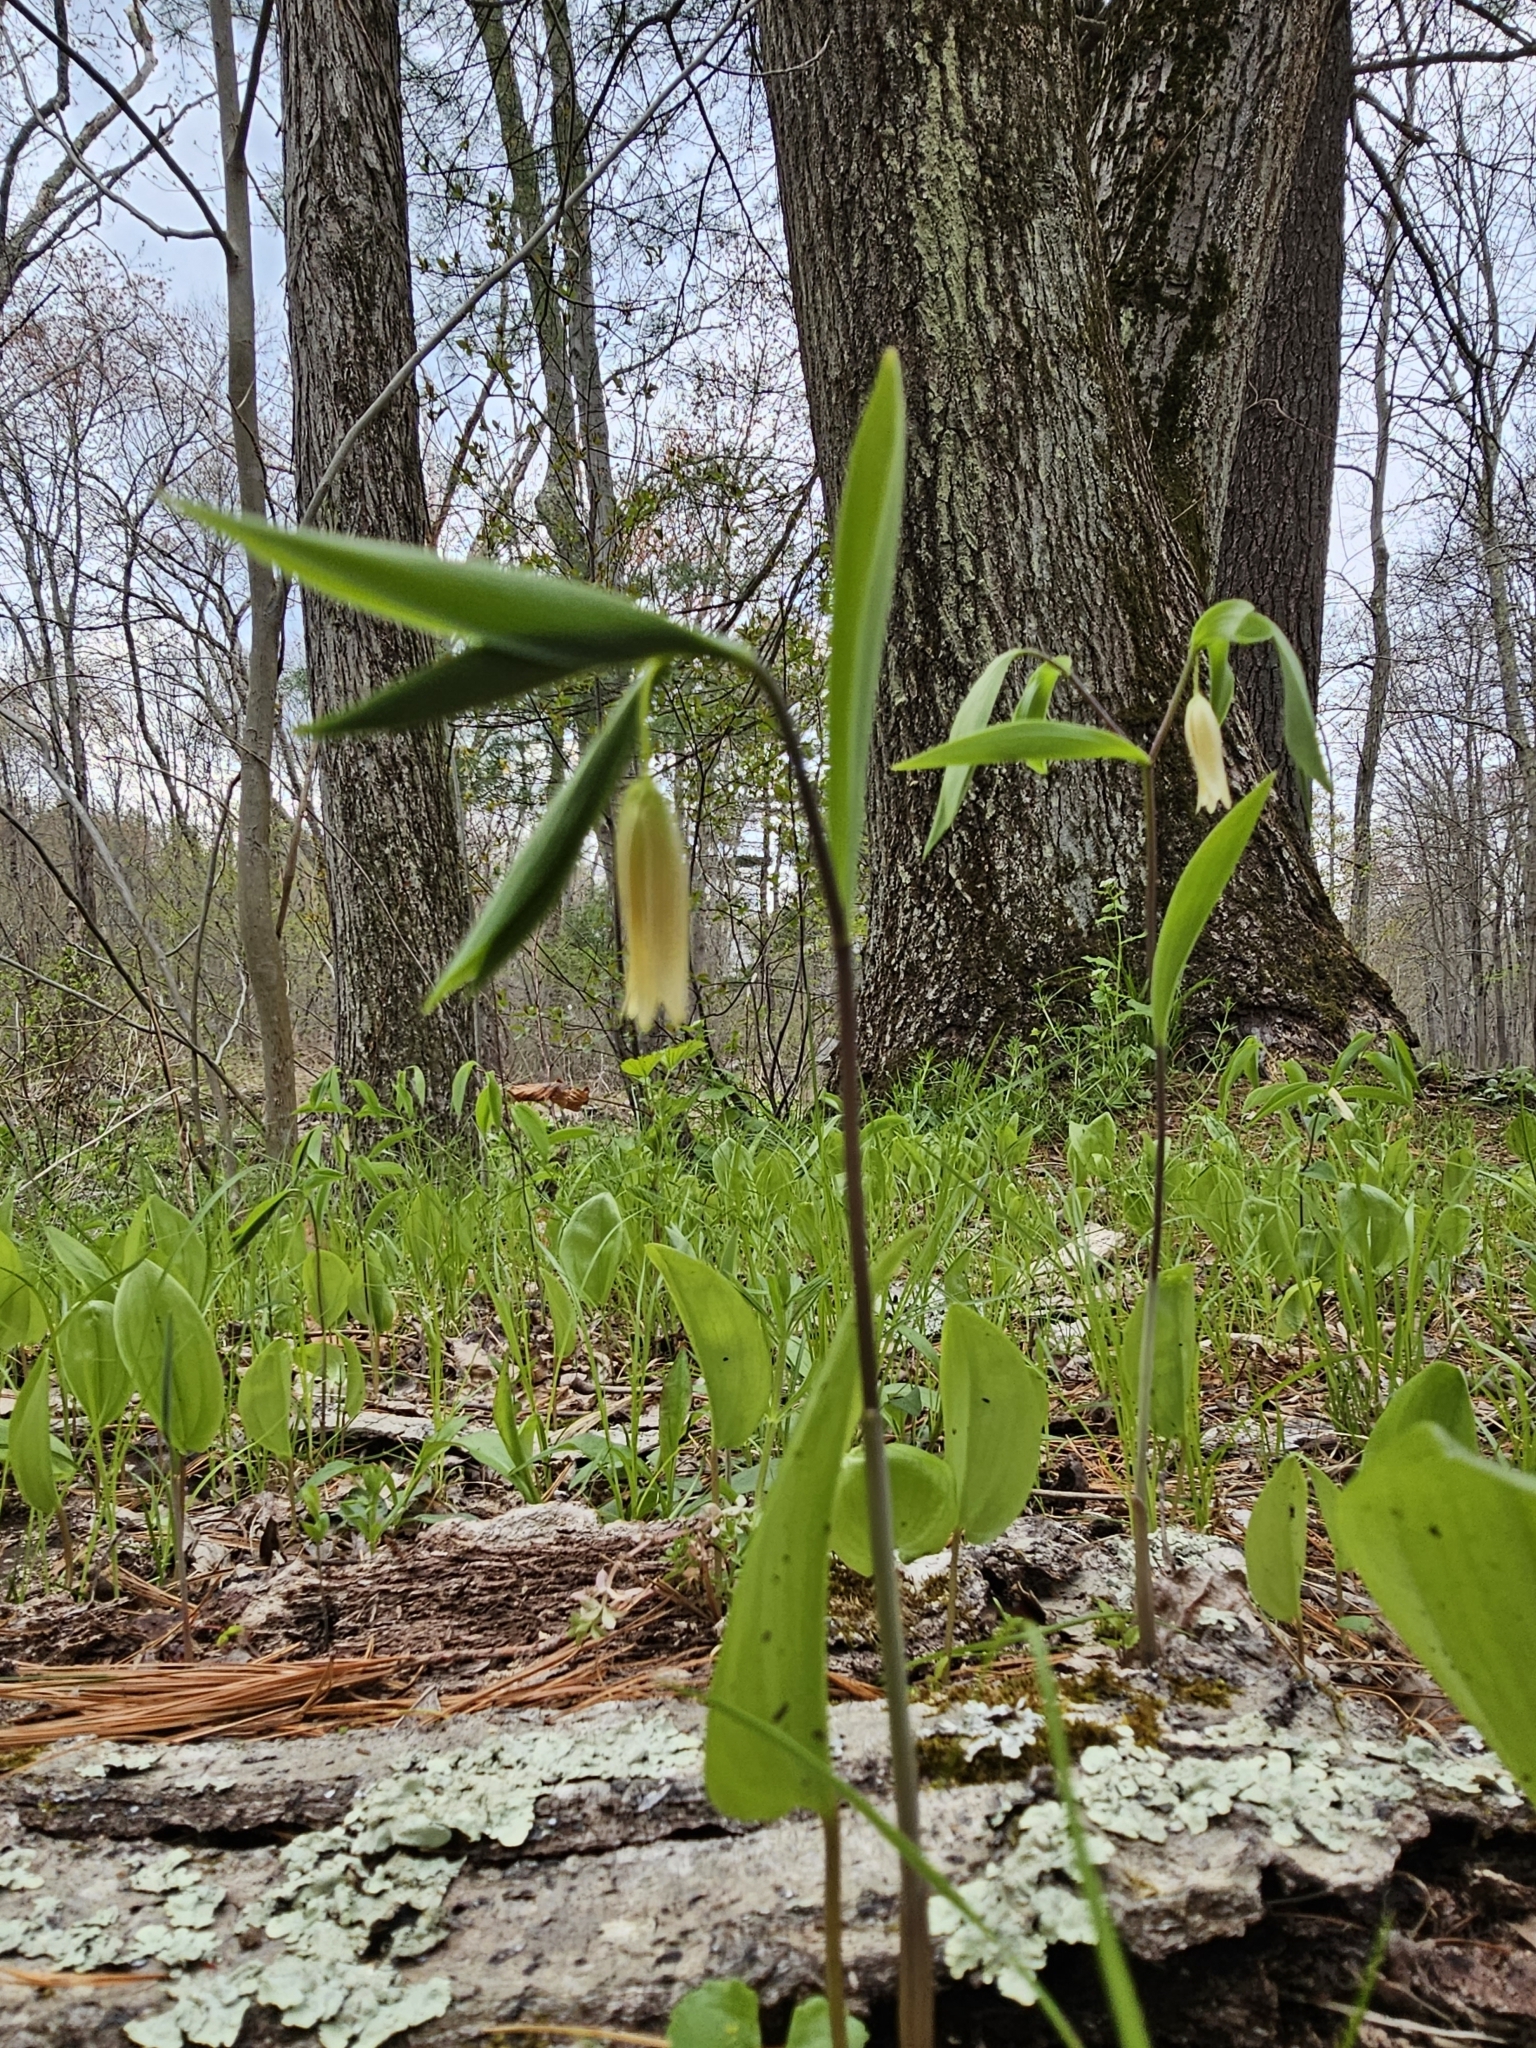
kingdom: Plantae
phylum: Tracheophyta
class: Liliopsida
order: Liliales
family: Colchicaceae
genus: Uvularia
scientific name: Uvularia sessilifolia
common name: Straw-lily
